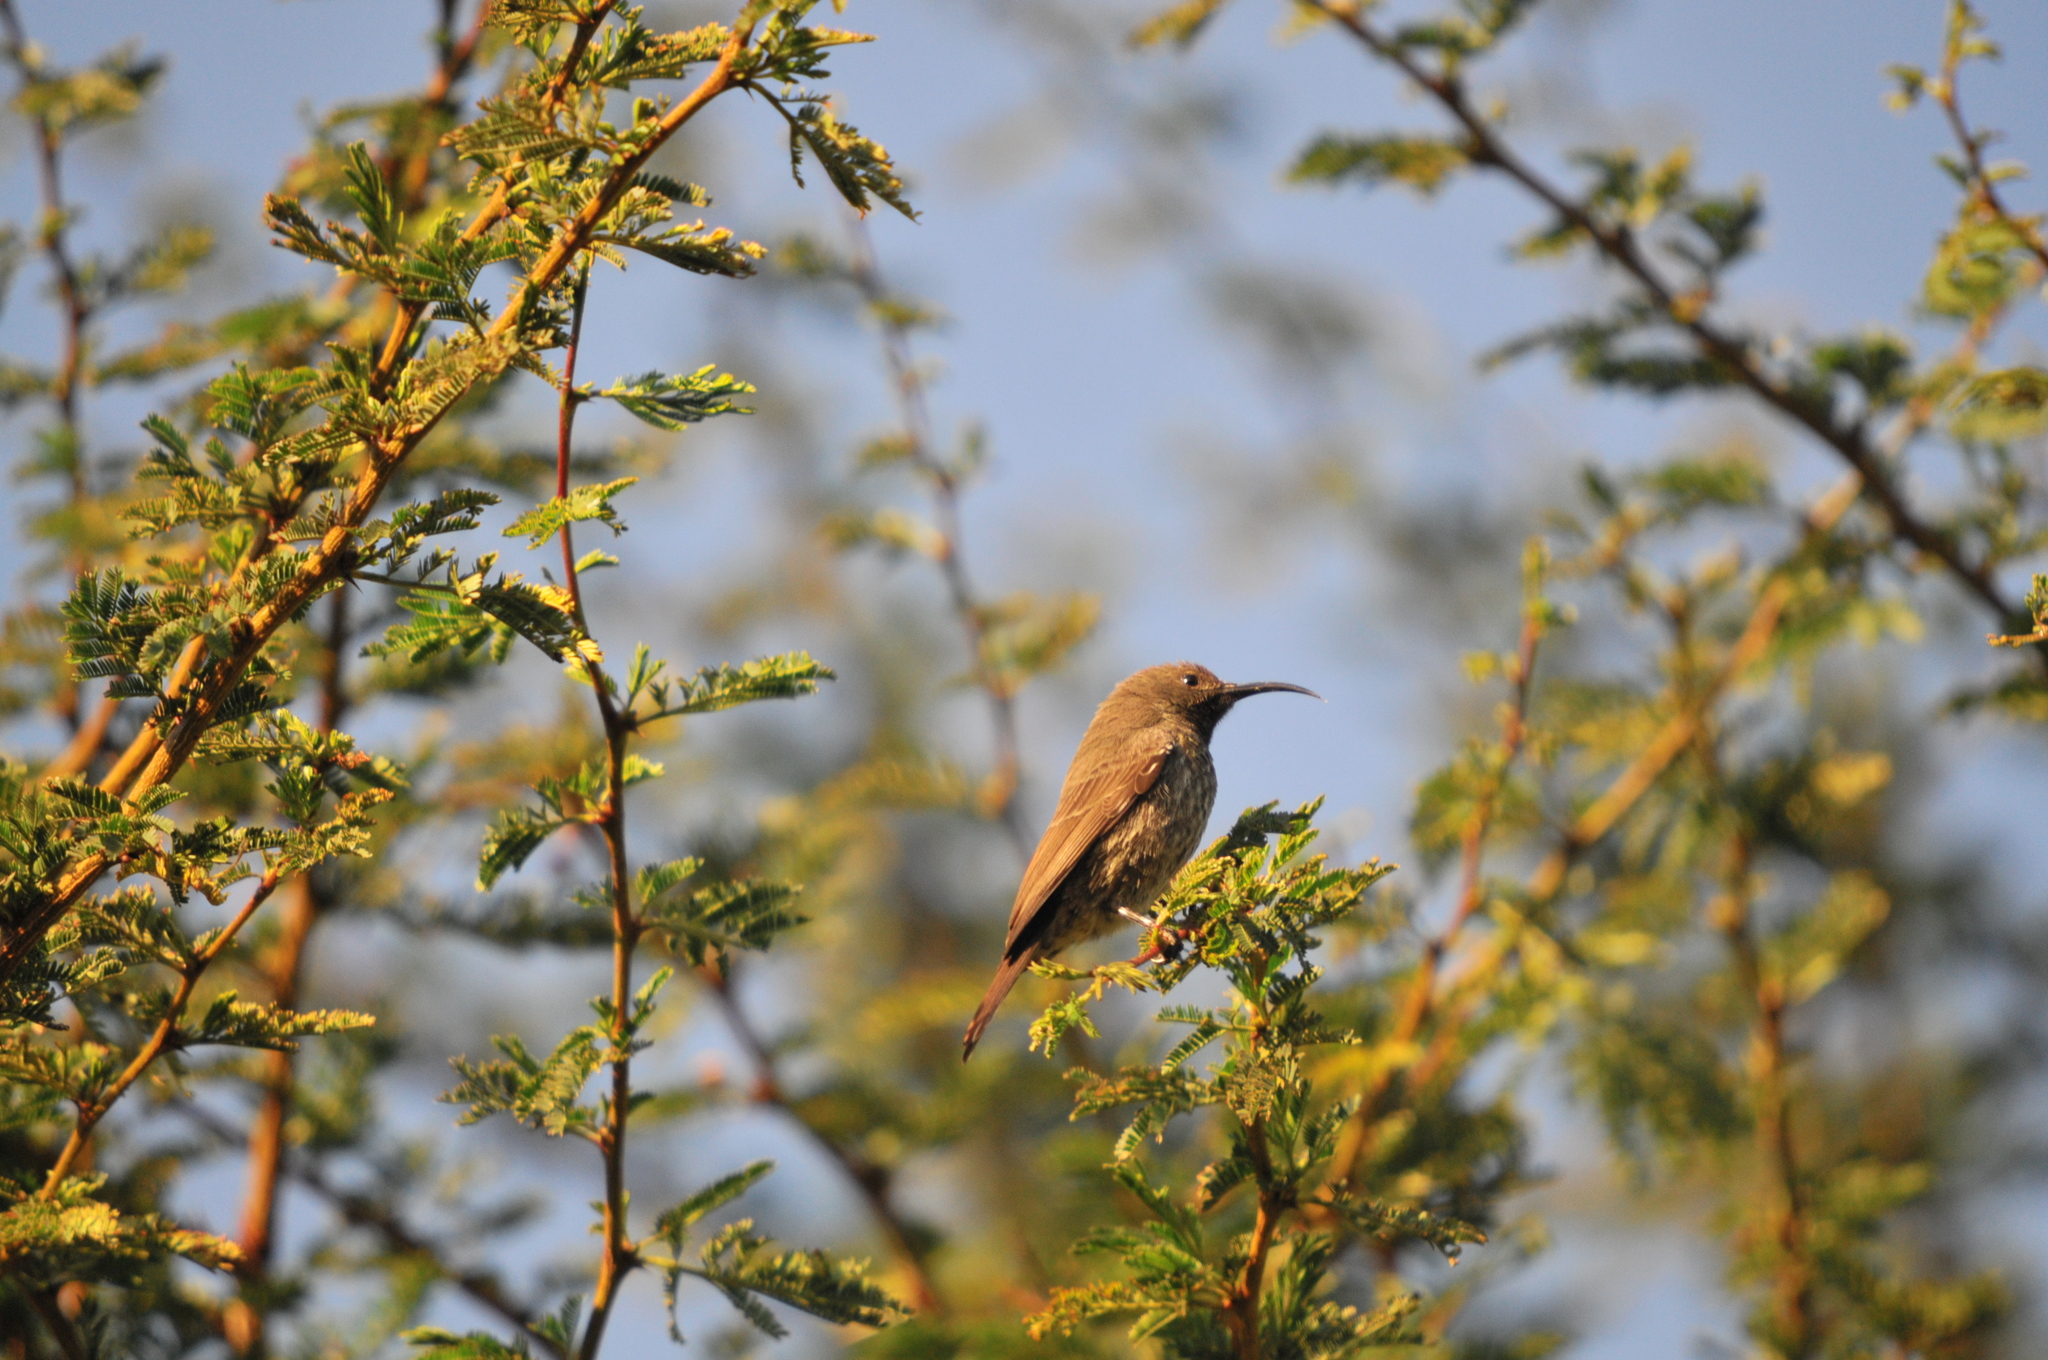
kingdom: Animalia
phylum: Chordata
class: Aves
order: Passeriformes
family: Nectariniidae
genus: Chalcomitra
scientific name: Chalcomitra hunteri
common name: Hunter's sunbird
